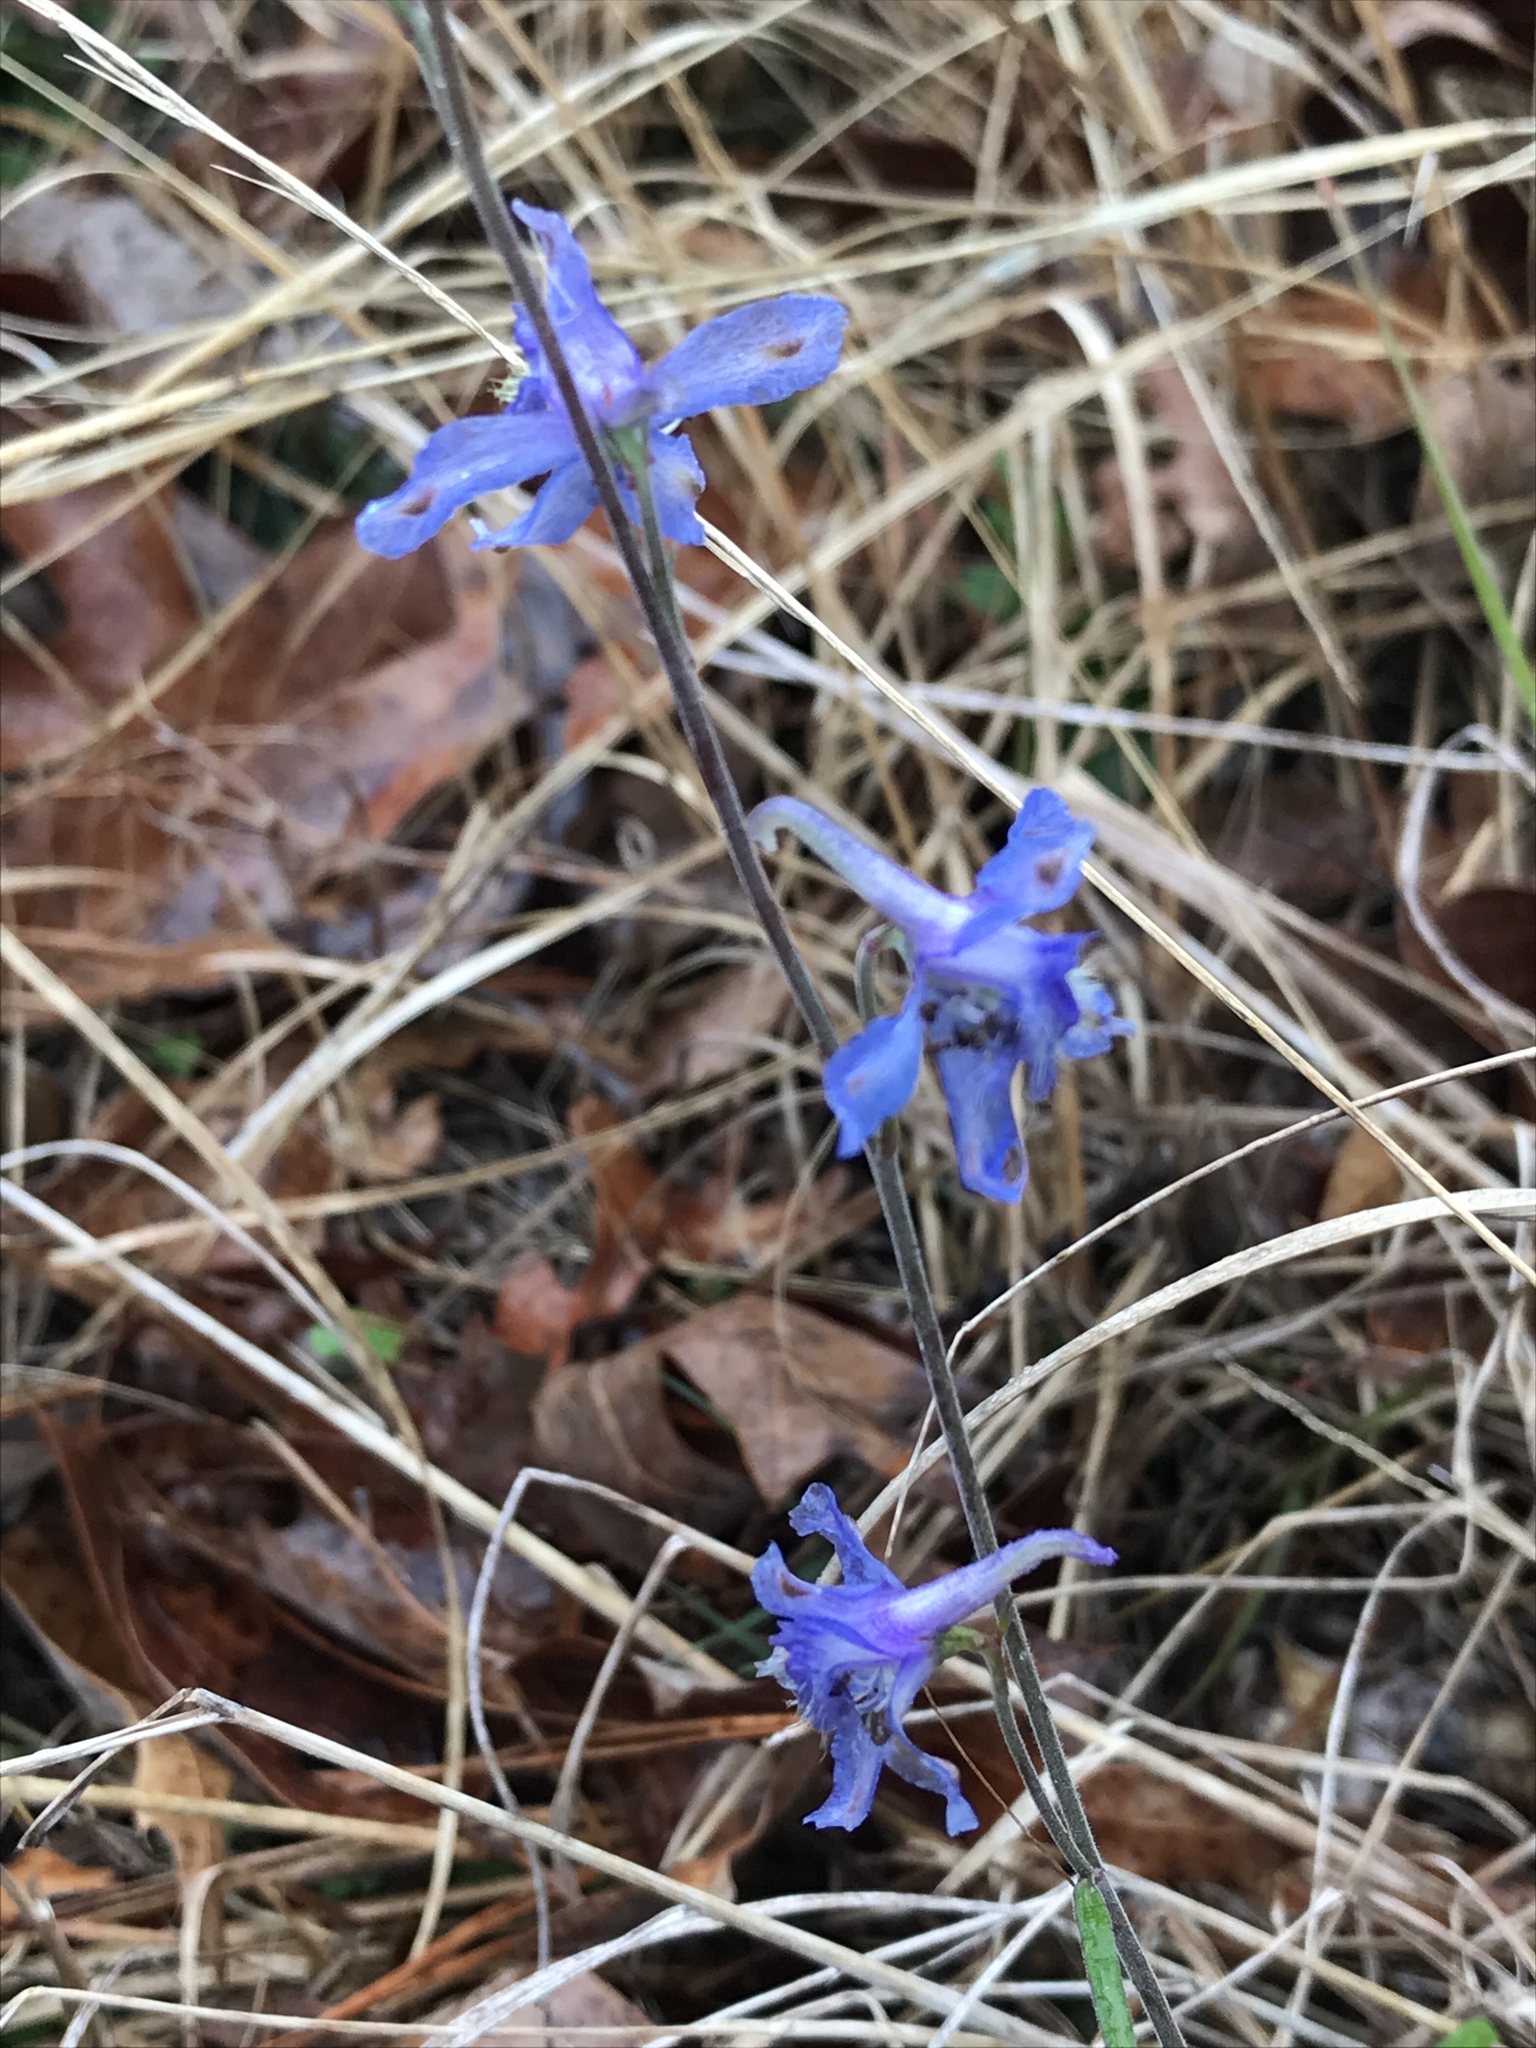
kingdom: Plantae
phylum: Tracheophyta
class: Magnoliopsida
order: Ranunculales
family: Ranunculaceae
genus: Delphinium
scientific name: Delphinium carolinianum
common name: Carolina larkspur
